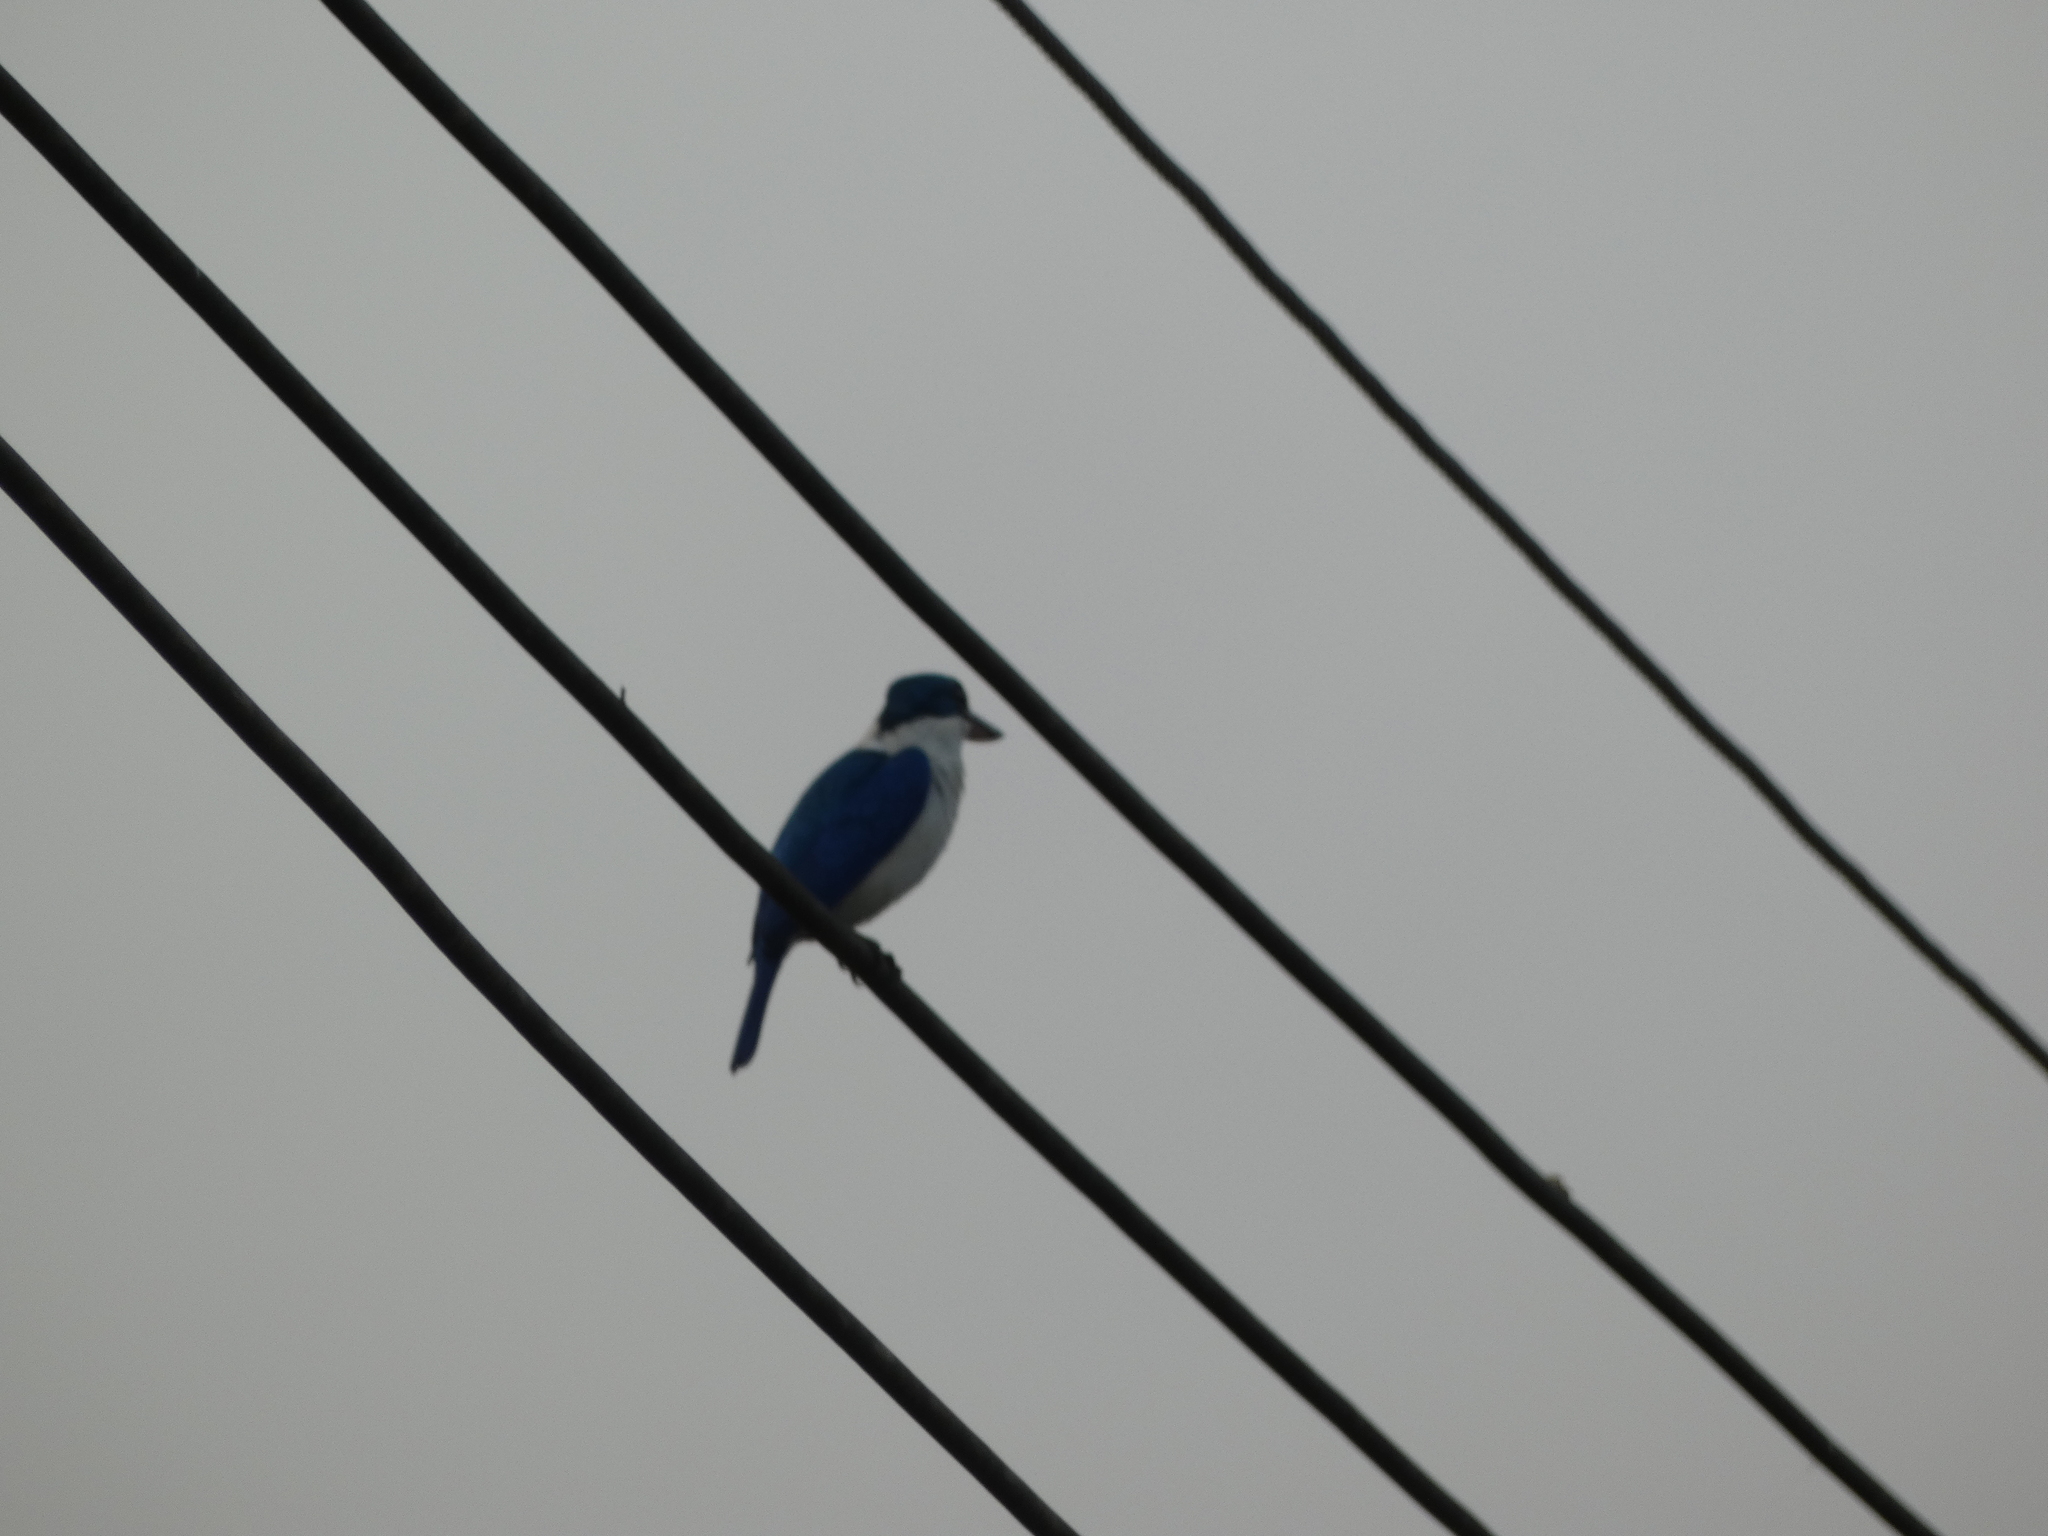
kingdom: Animalia
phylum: Chordata
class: Aves
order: Coraciiformes
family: Alcedinidae
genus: Todiramphus
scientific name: Todiramphus chloris
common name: Collared kingfisher
